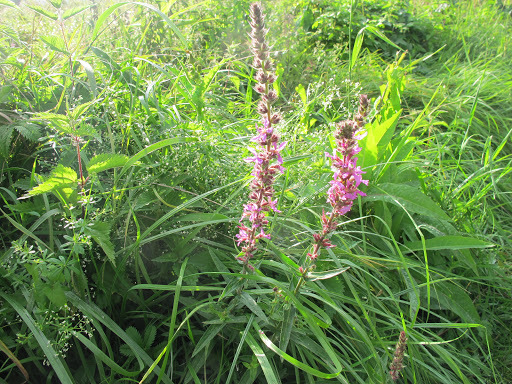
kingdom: Plantae
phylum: Tracheophyta
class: Magnoliopsida
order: Myrtales
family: Lythraceae
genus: Lythrum
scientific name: Lythrum salicaria
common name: Purple loosestrife
